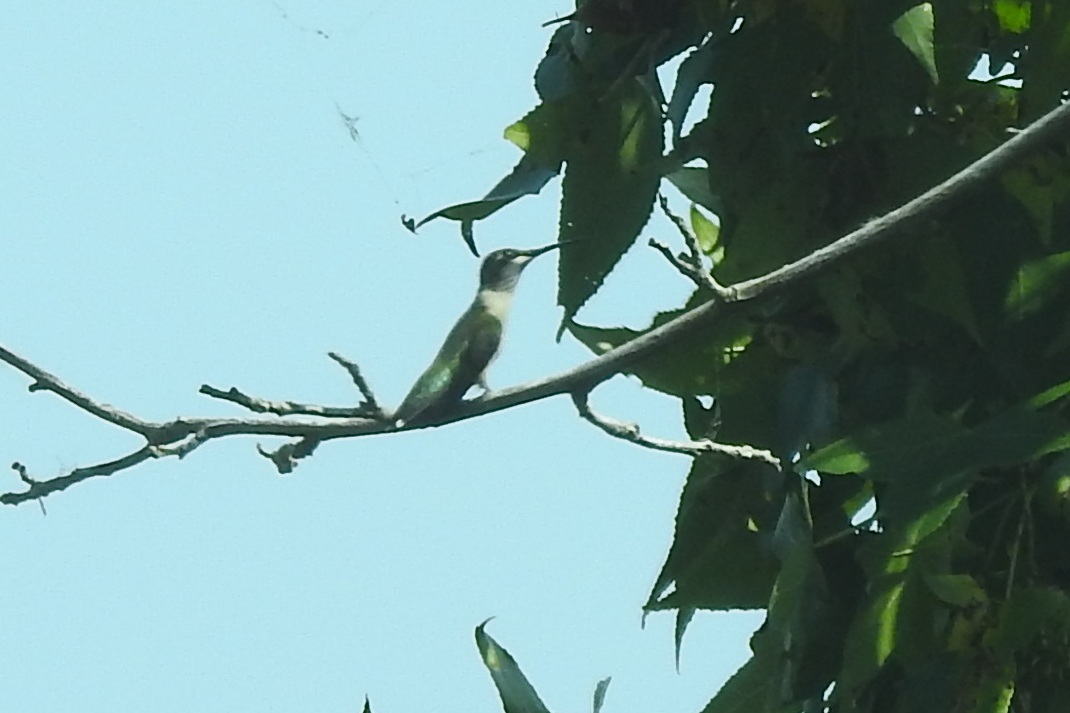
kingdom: Animalia
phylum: Chordata
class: Aves
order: Apodiformes
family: Trochilidae
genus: Archilochus
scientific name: Archilochus colubris
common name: Ruby-throated hummingbird
